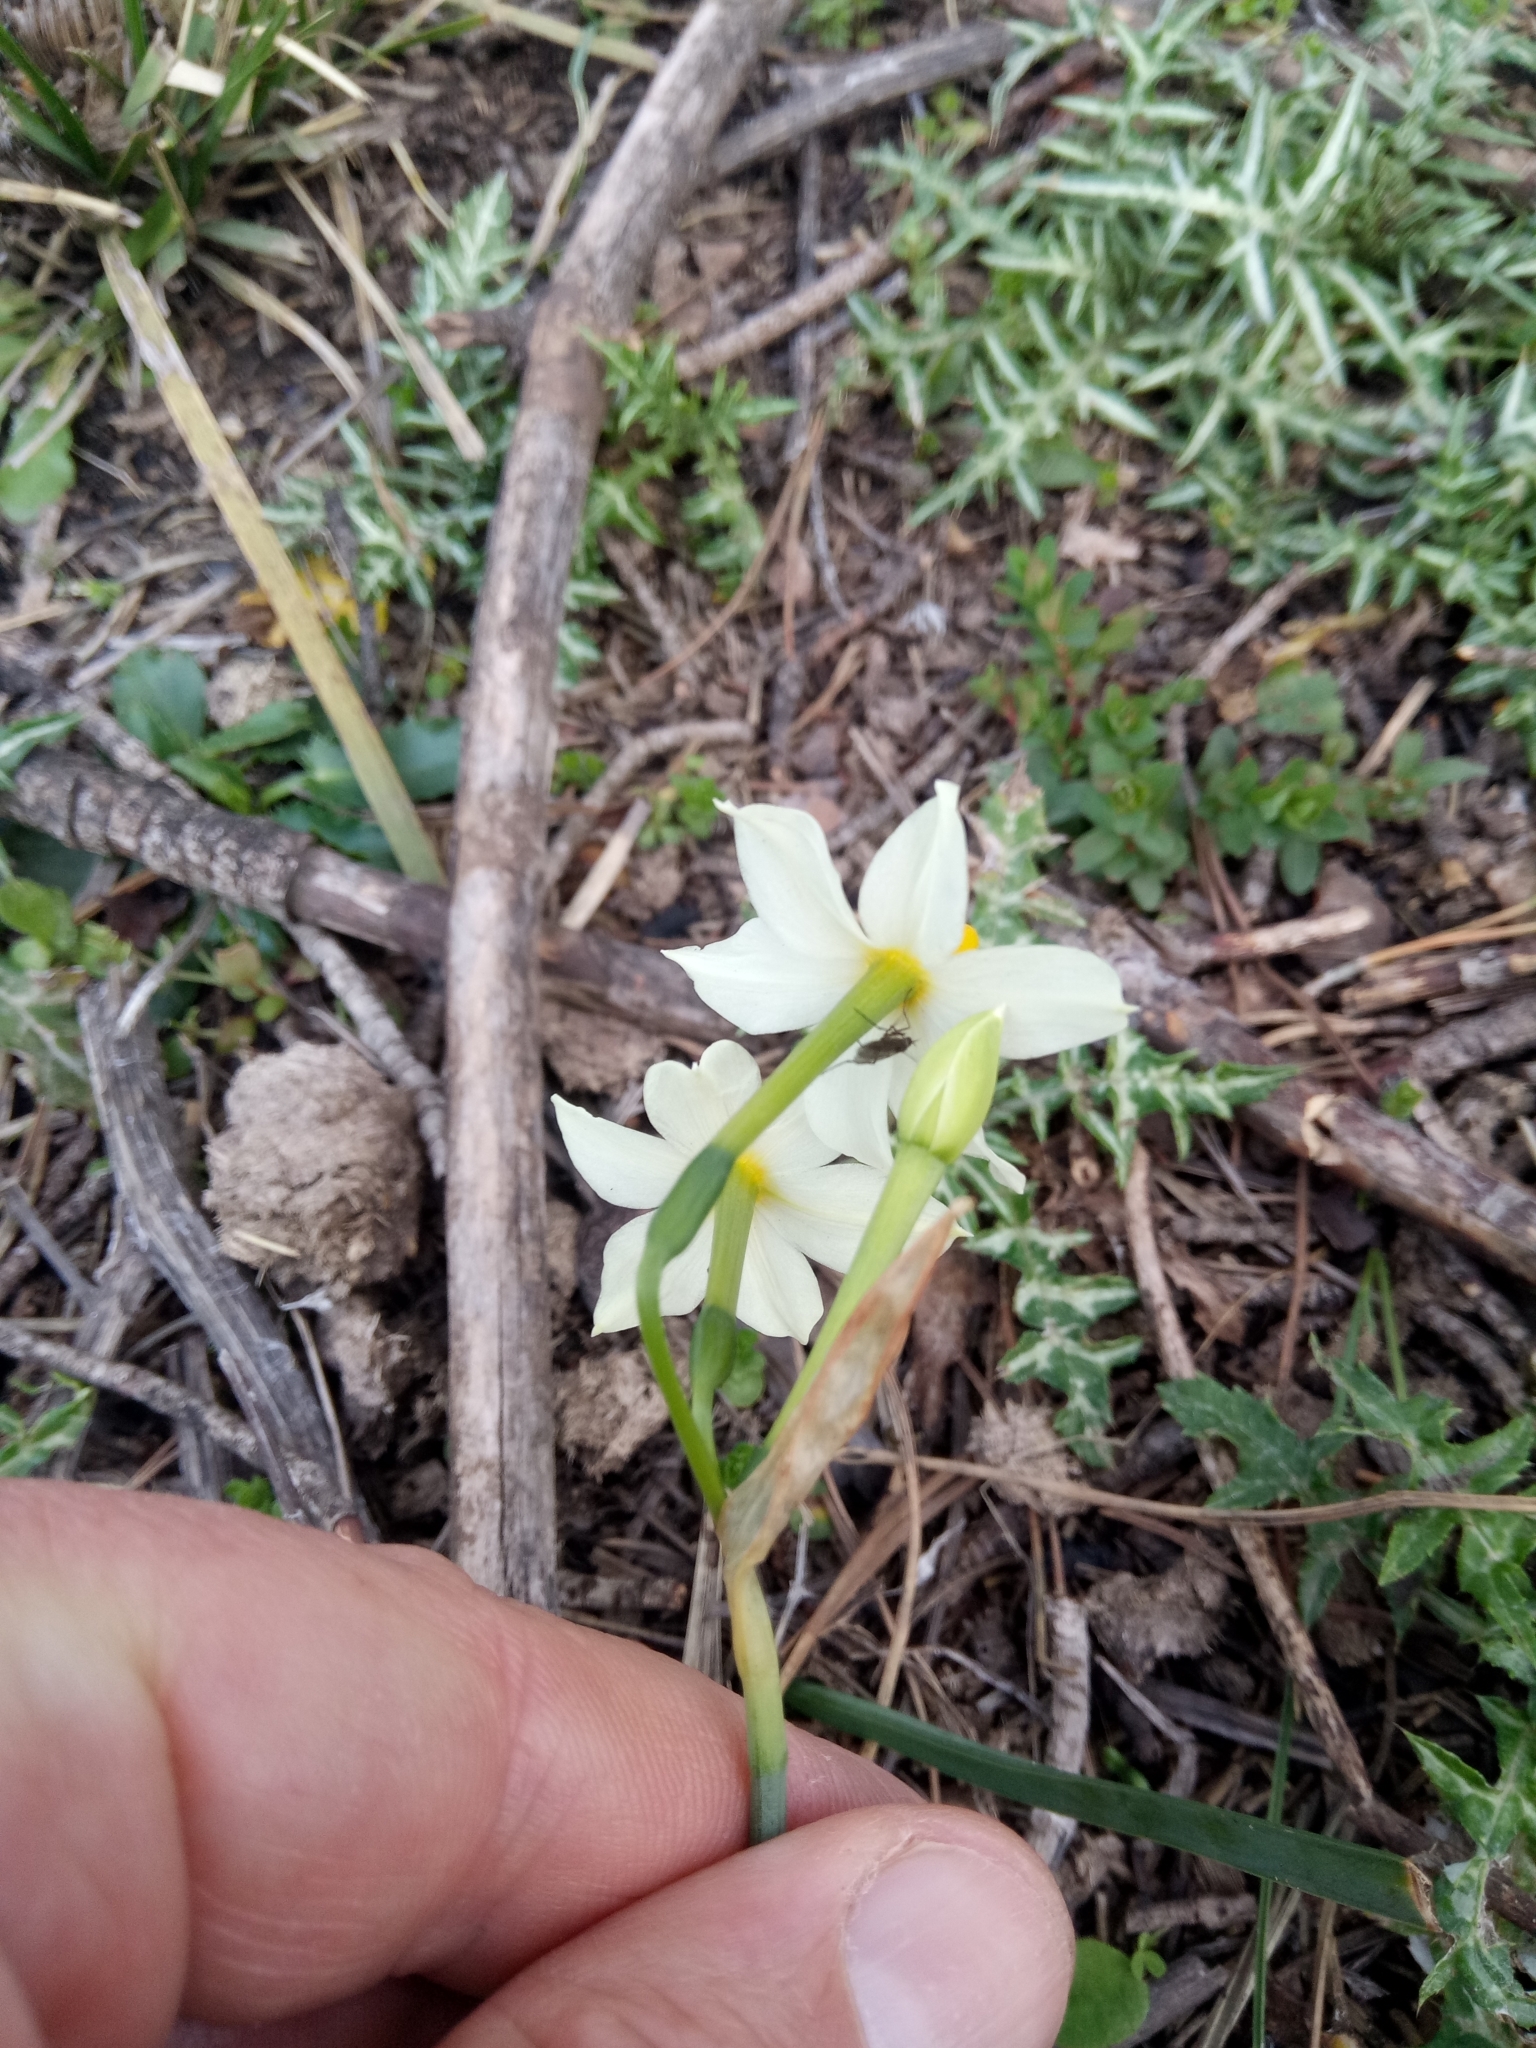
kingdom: Plantae
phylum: Tracheophyta
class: Liliopsida
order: Asparagales
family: Amaryllidaceae
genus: Narcissus
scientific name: Narcissus tazetta
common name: Bunch-flowered daffodil
